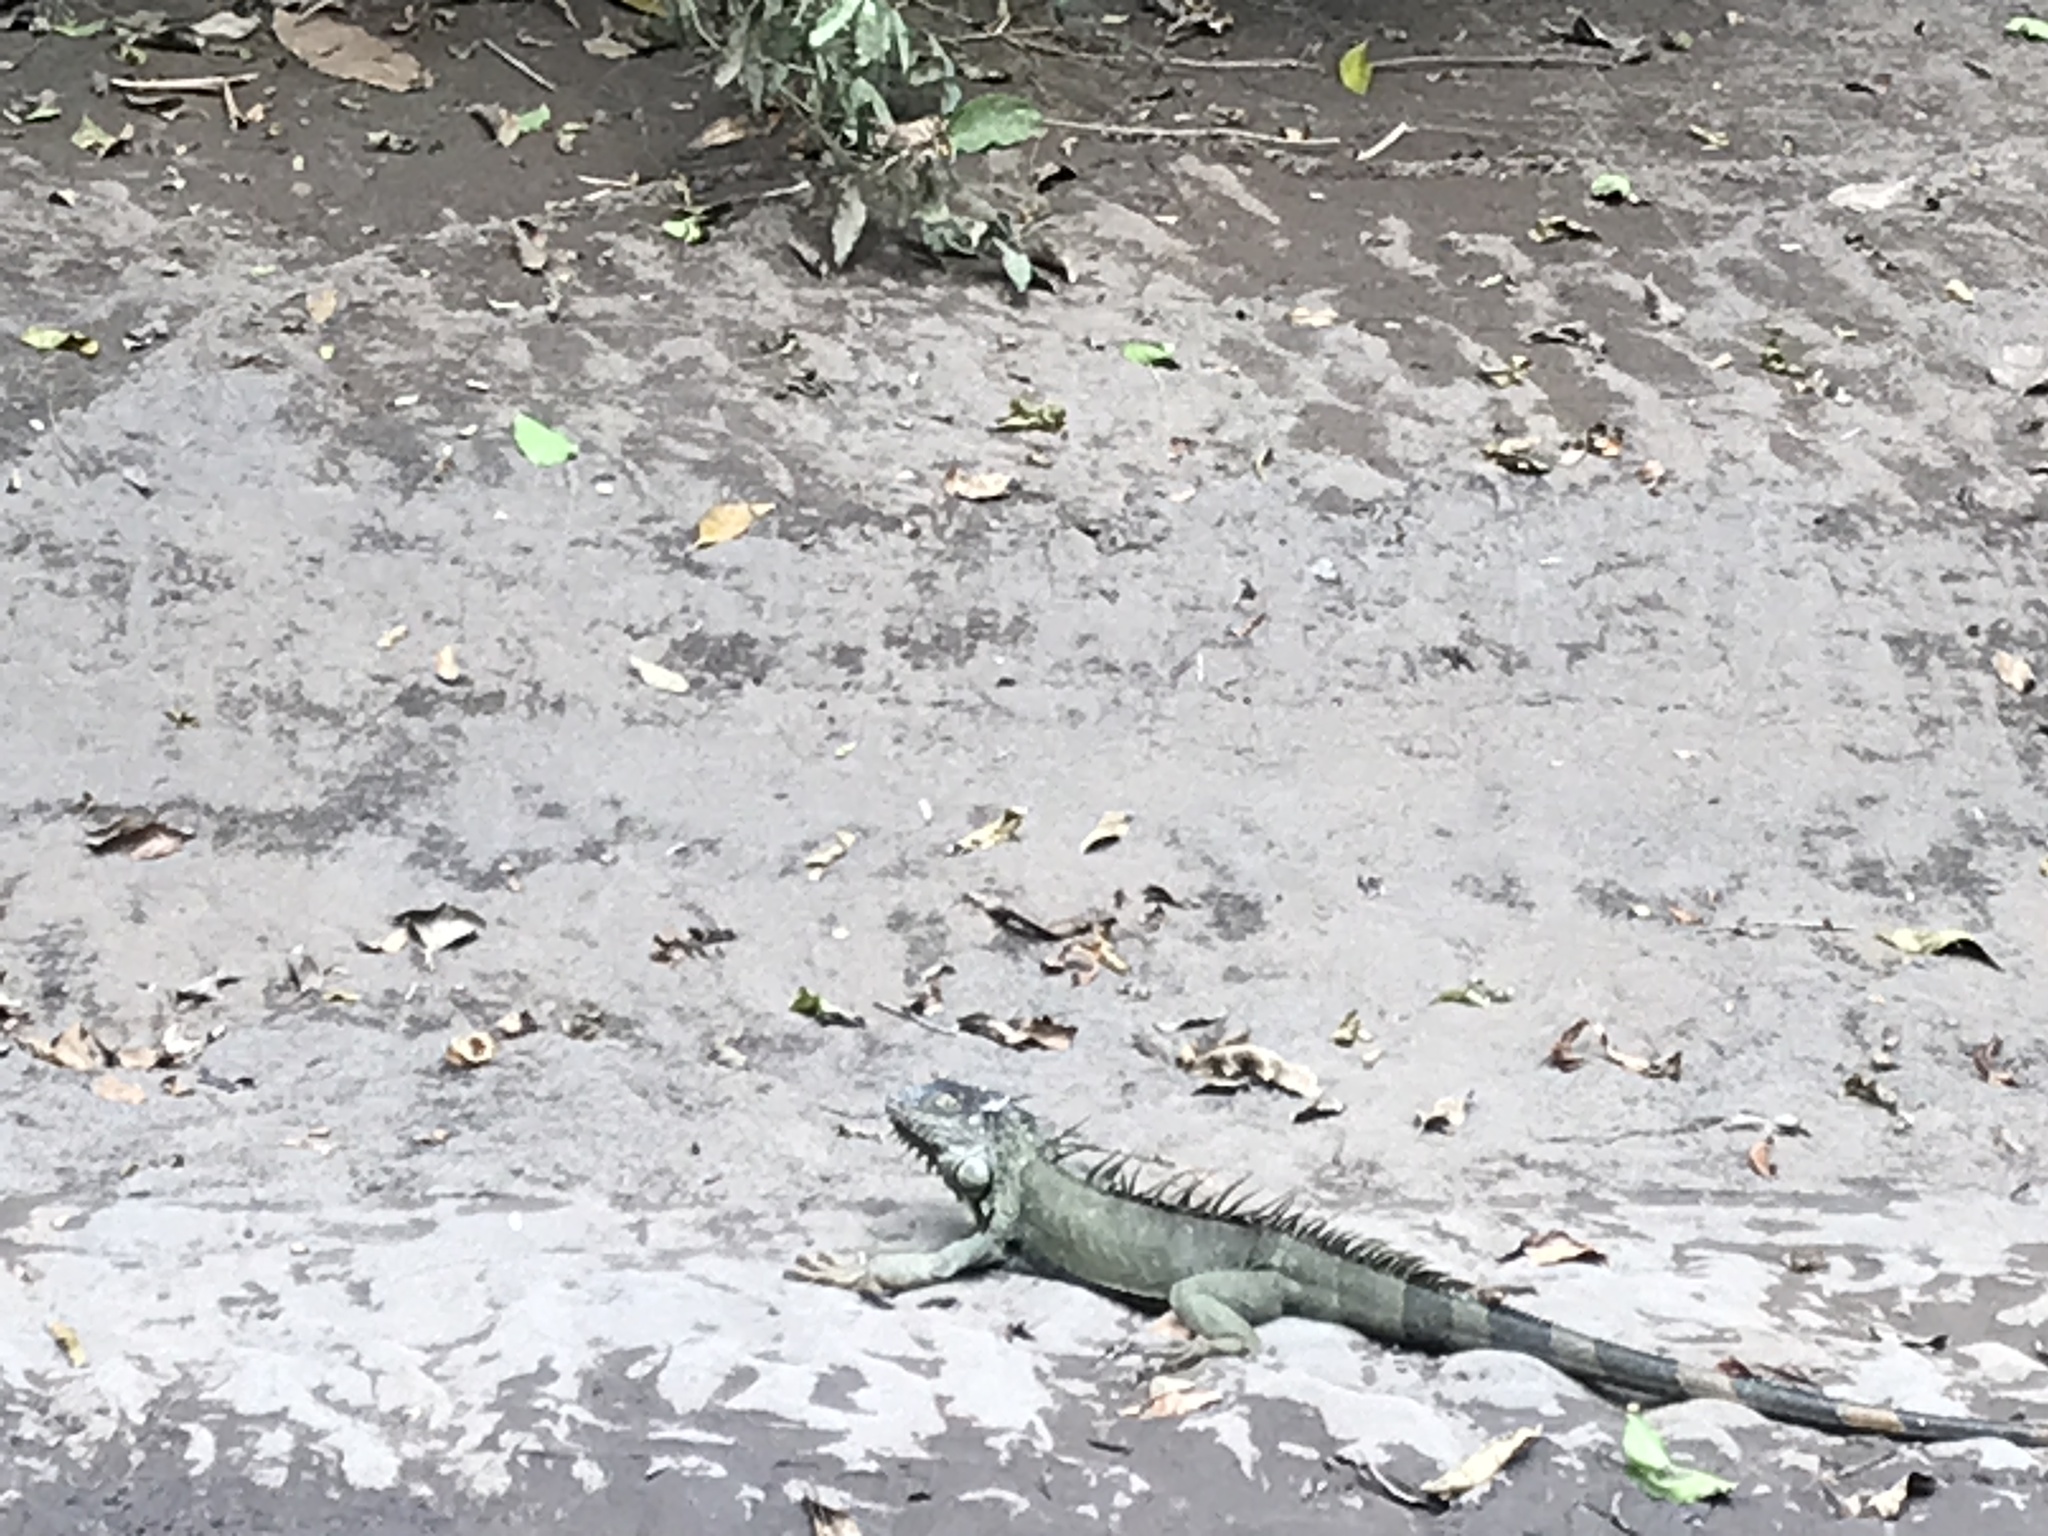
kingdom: Animalia
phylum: Chordata
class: Squamata
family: Iguanidae
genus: Iguana
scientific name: Iguana iguana
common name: Green iguana
